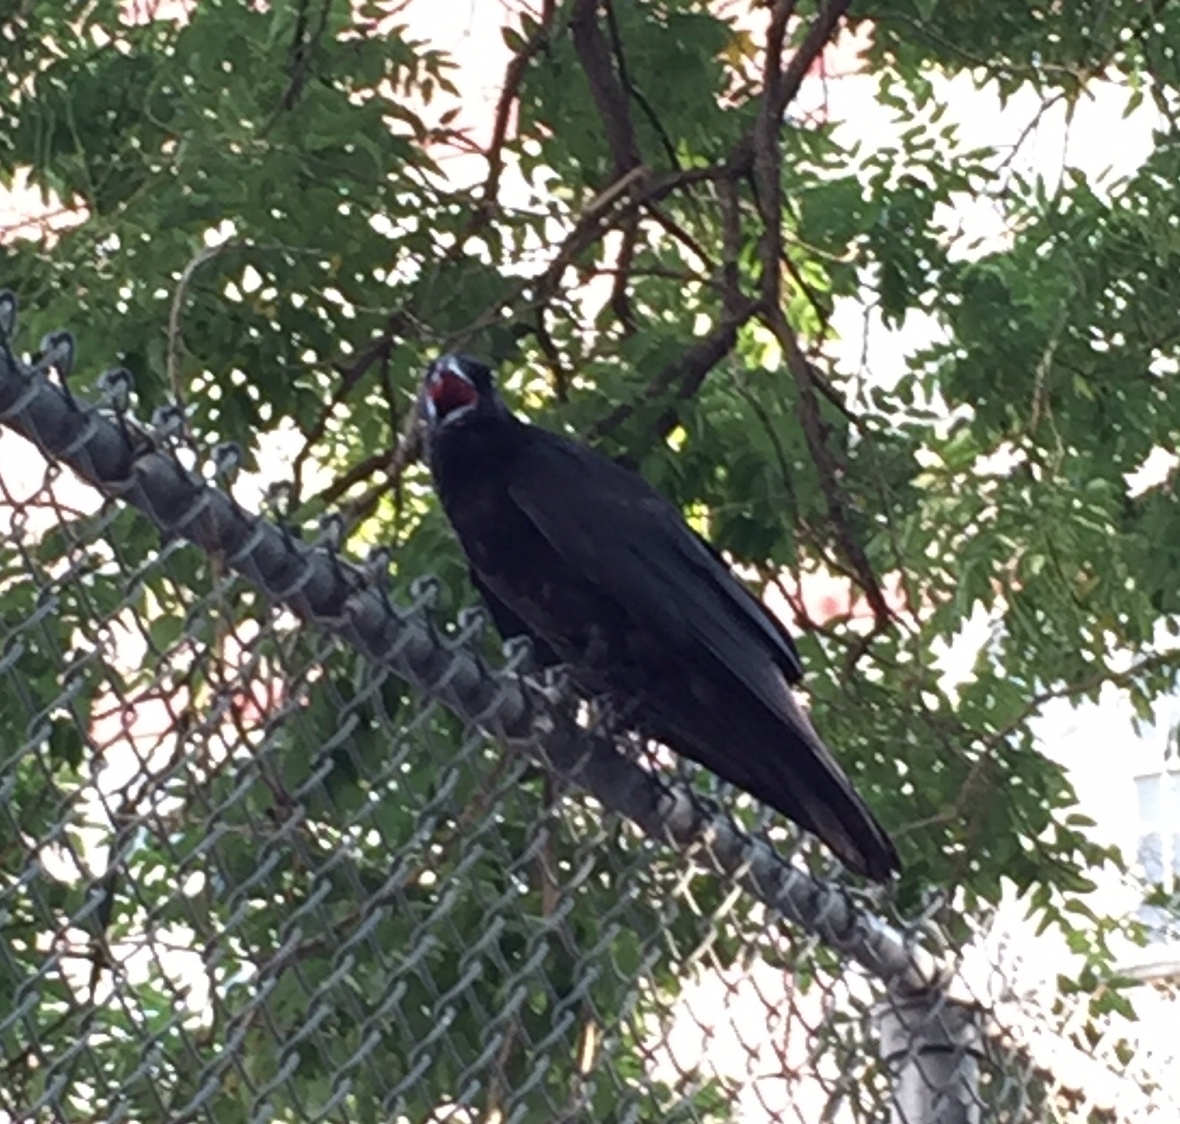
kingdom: Animalia
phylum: Chordata
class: Aves
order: Passeriformes
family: Corvidae
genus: Corvus
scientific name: Corvus ossifragus
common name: Fish crow
